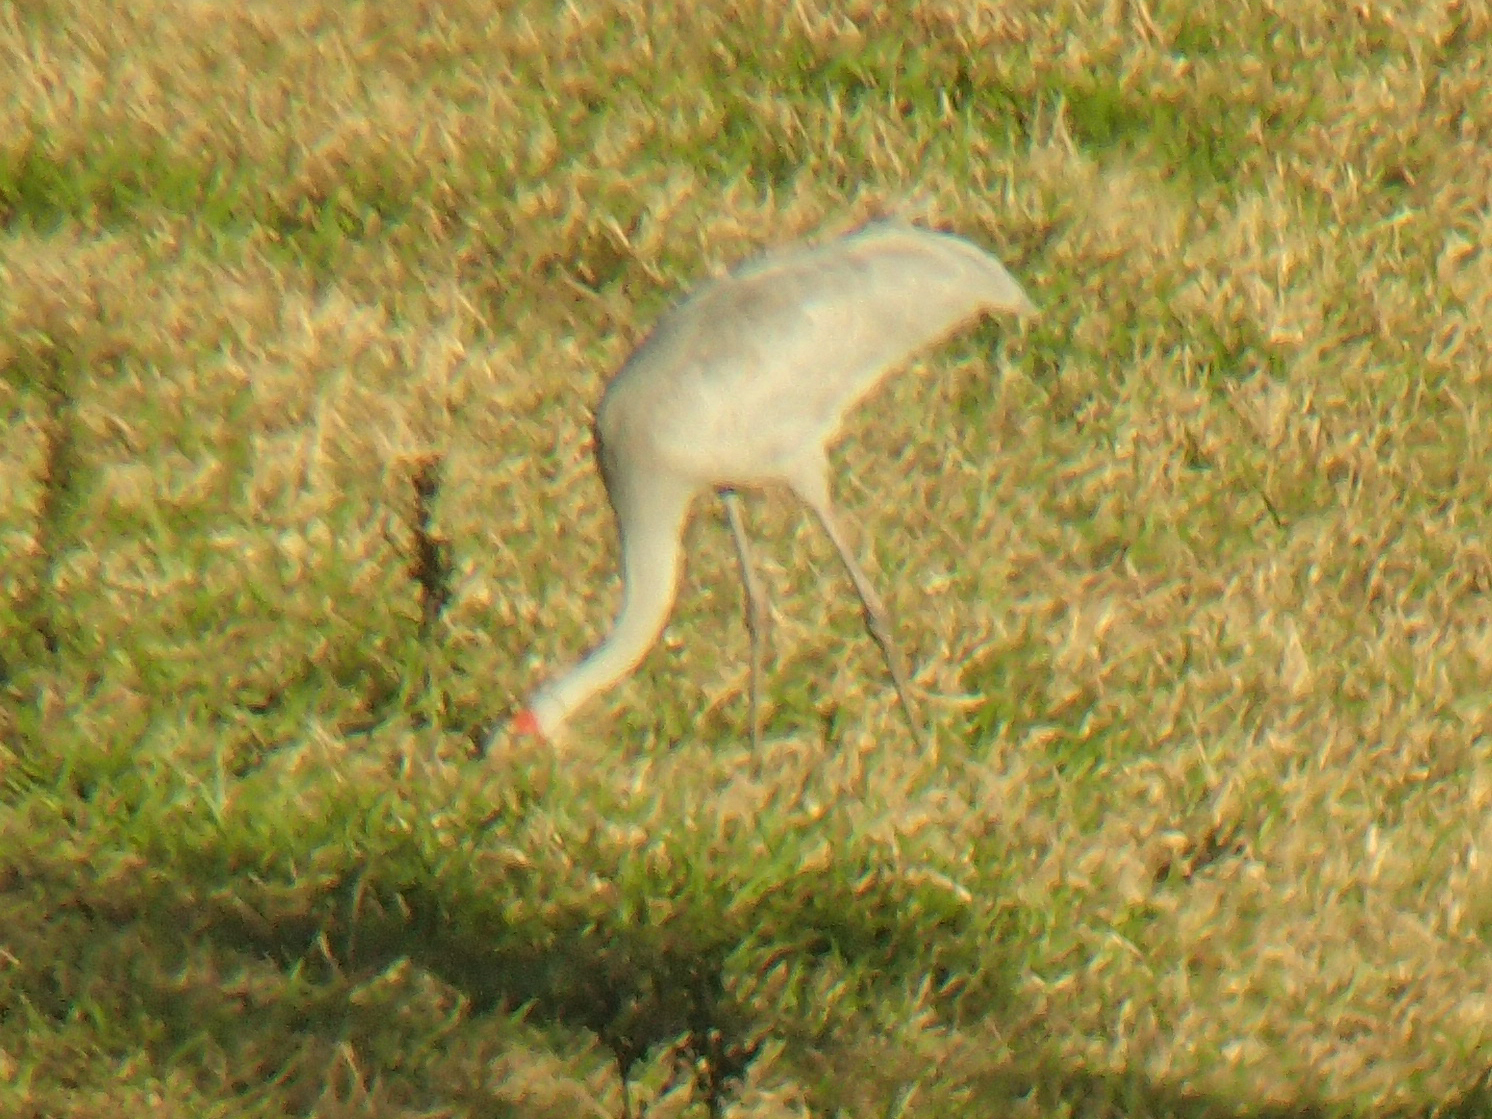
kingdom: Animalia
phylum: Chordata
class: Aves
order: Gruiformes
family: Gruidae
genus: Grus
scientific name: Grus rubicunda
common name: Brolga
